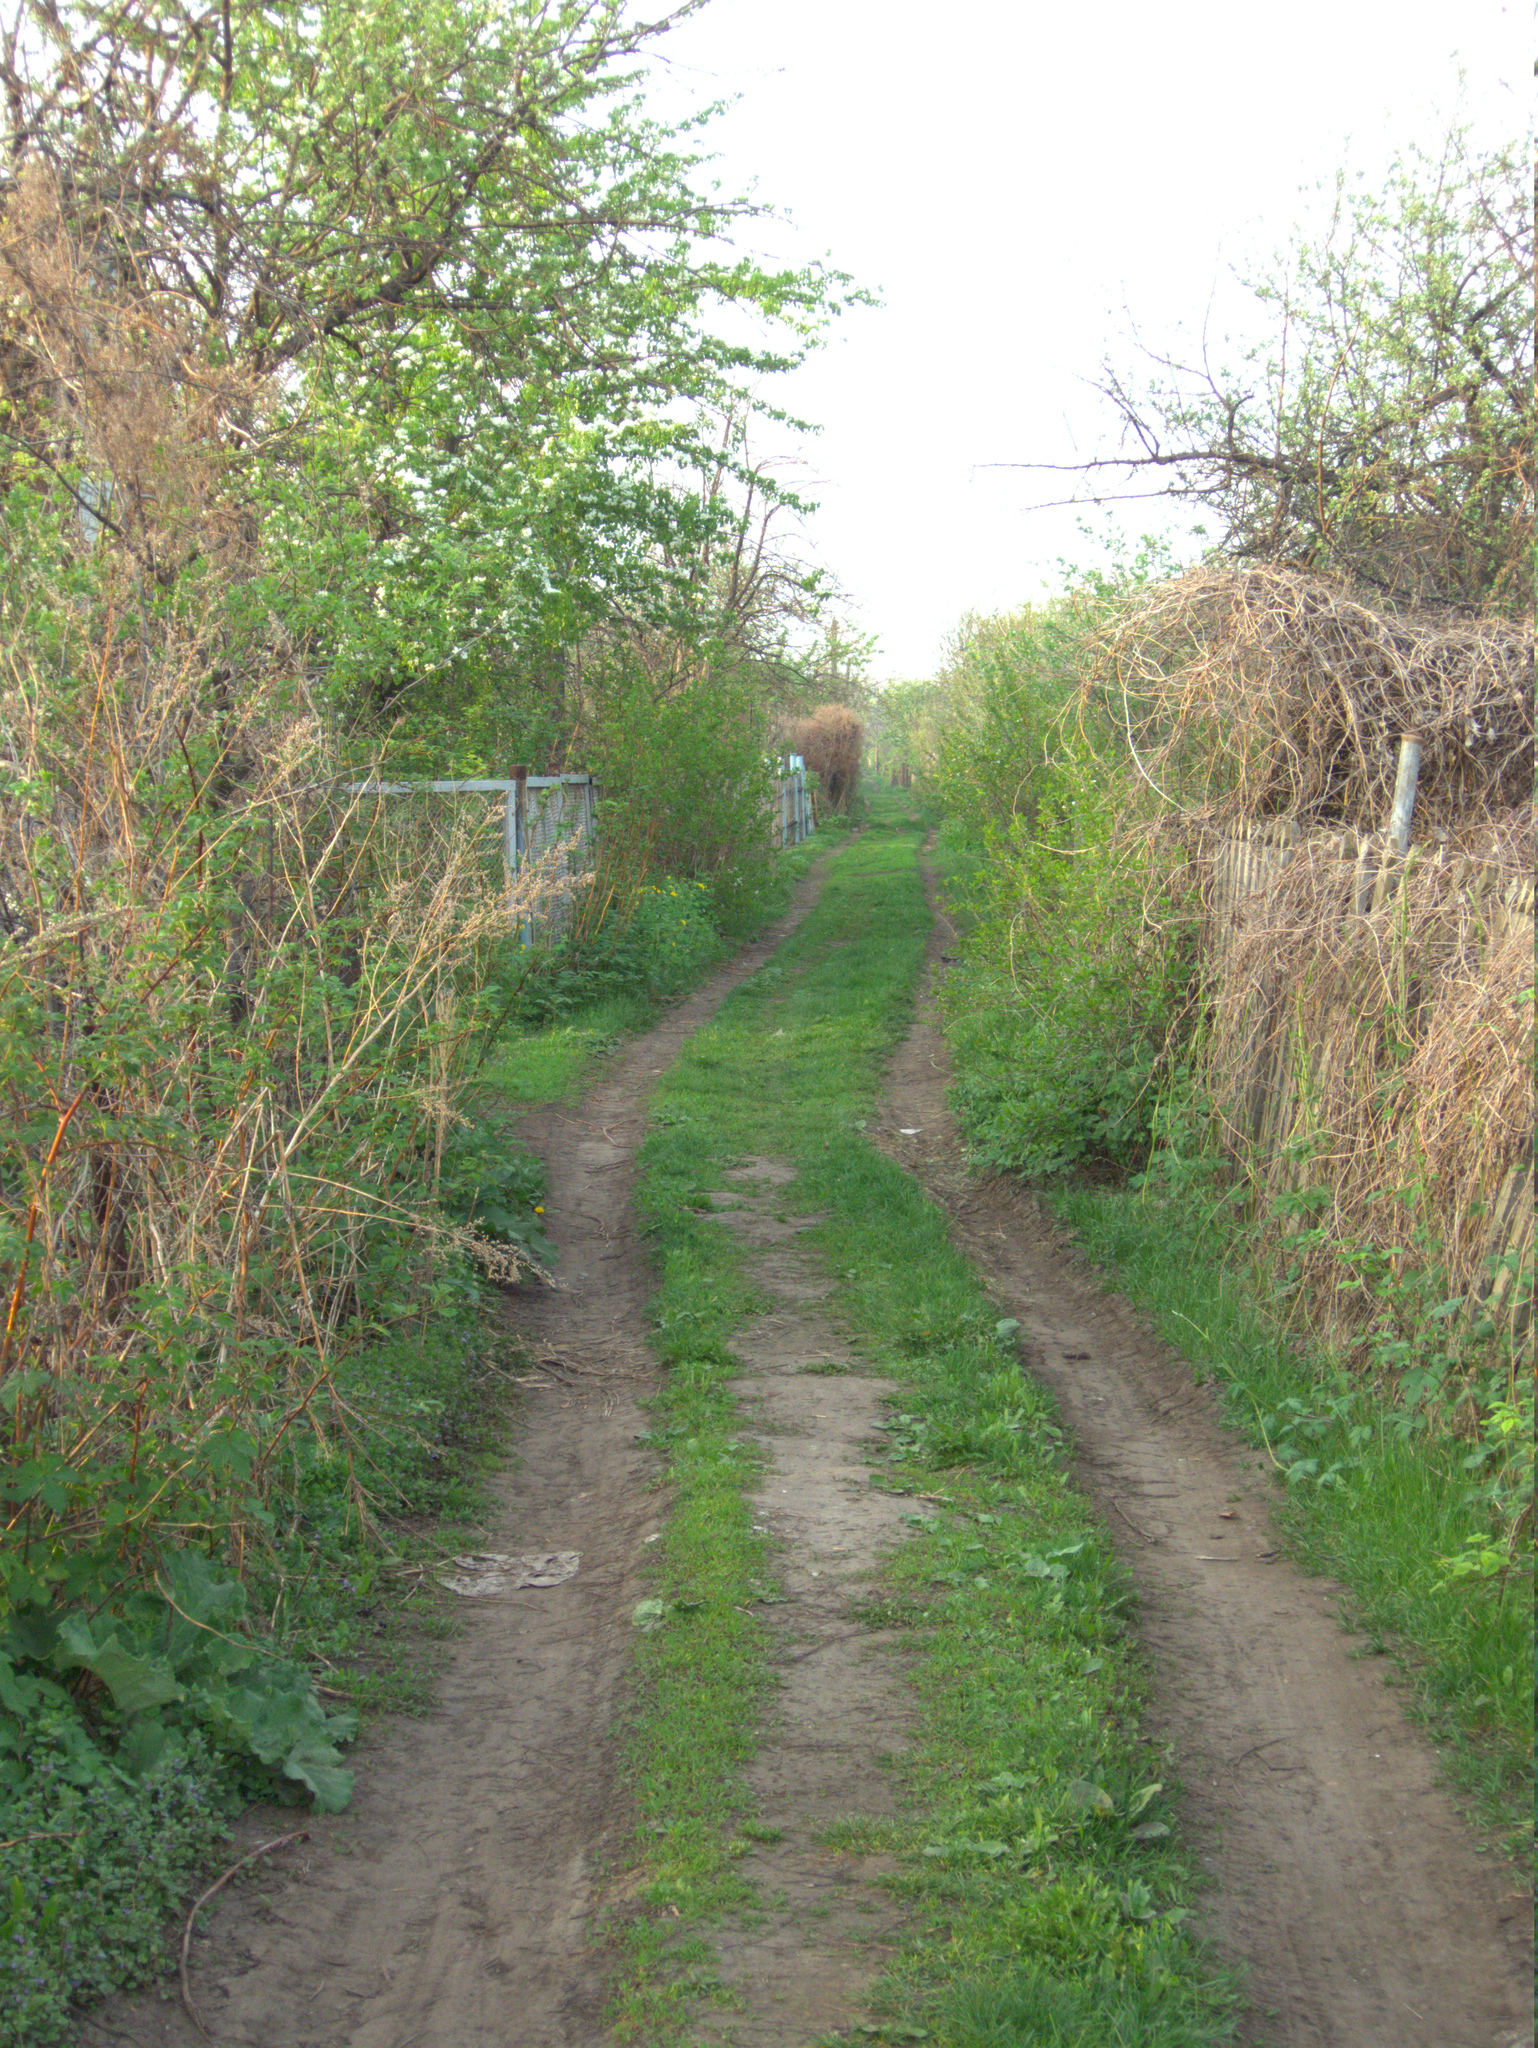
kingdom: Plantae
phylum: Tracheophyta
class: Magnoliopsida
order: Asterales
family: Asteraceae
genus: Arctium
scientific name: Arctium
